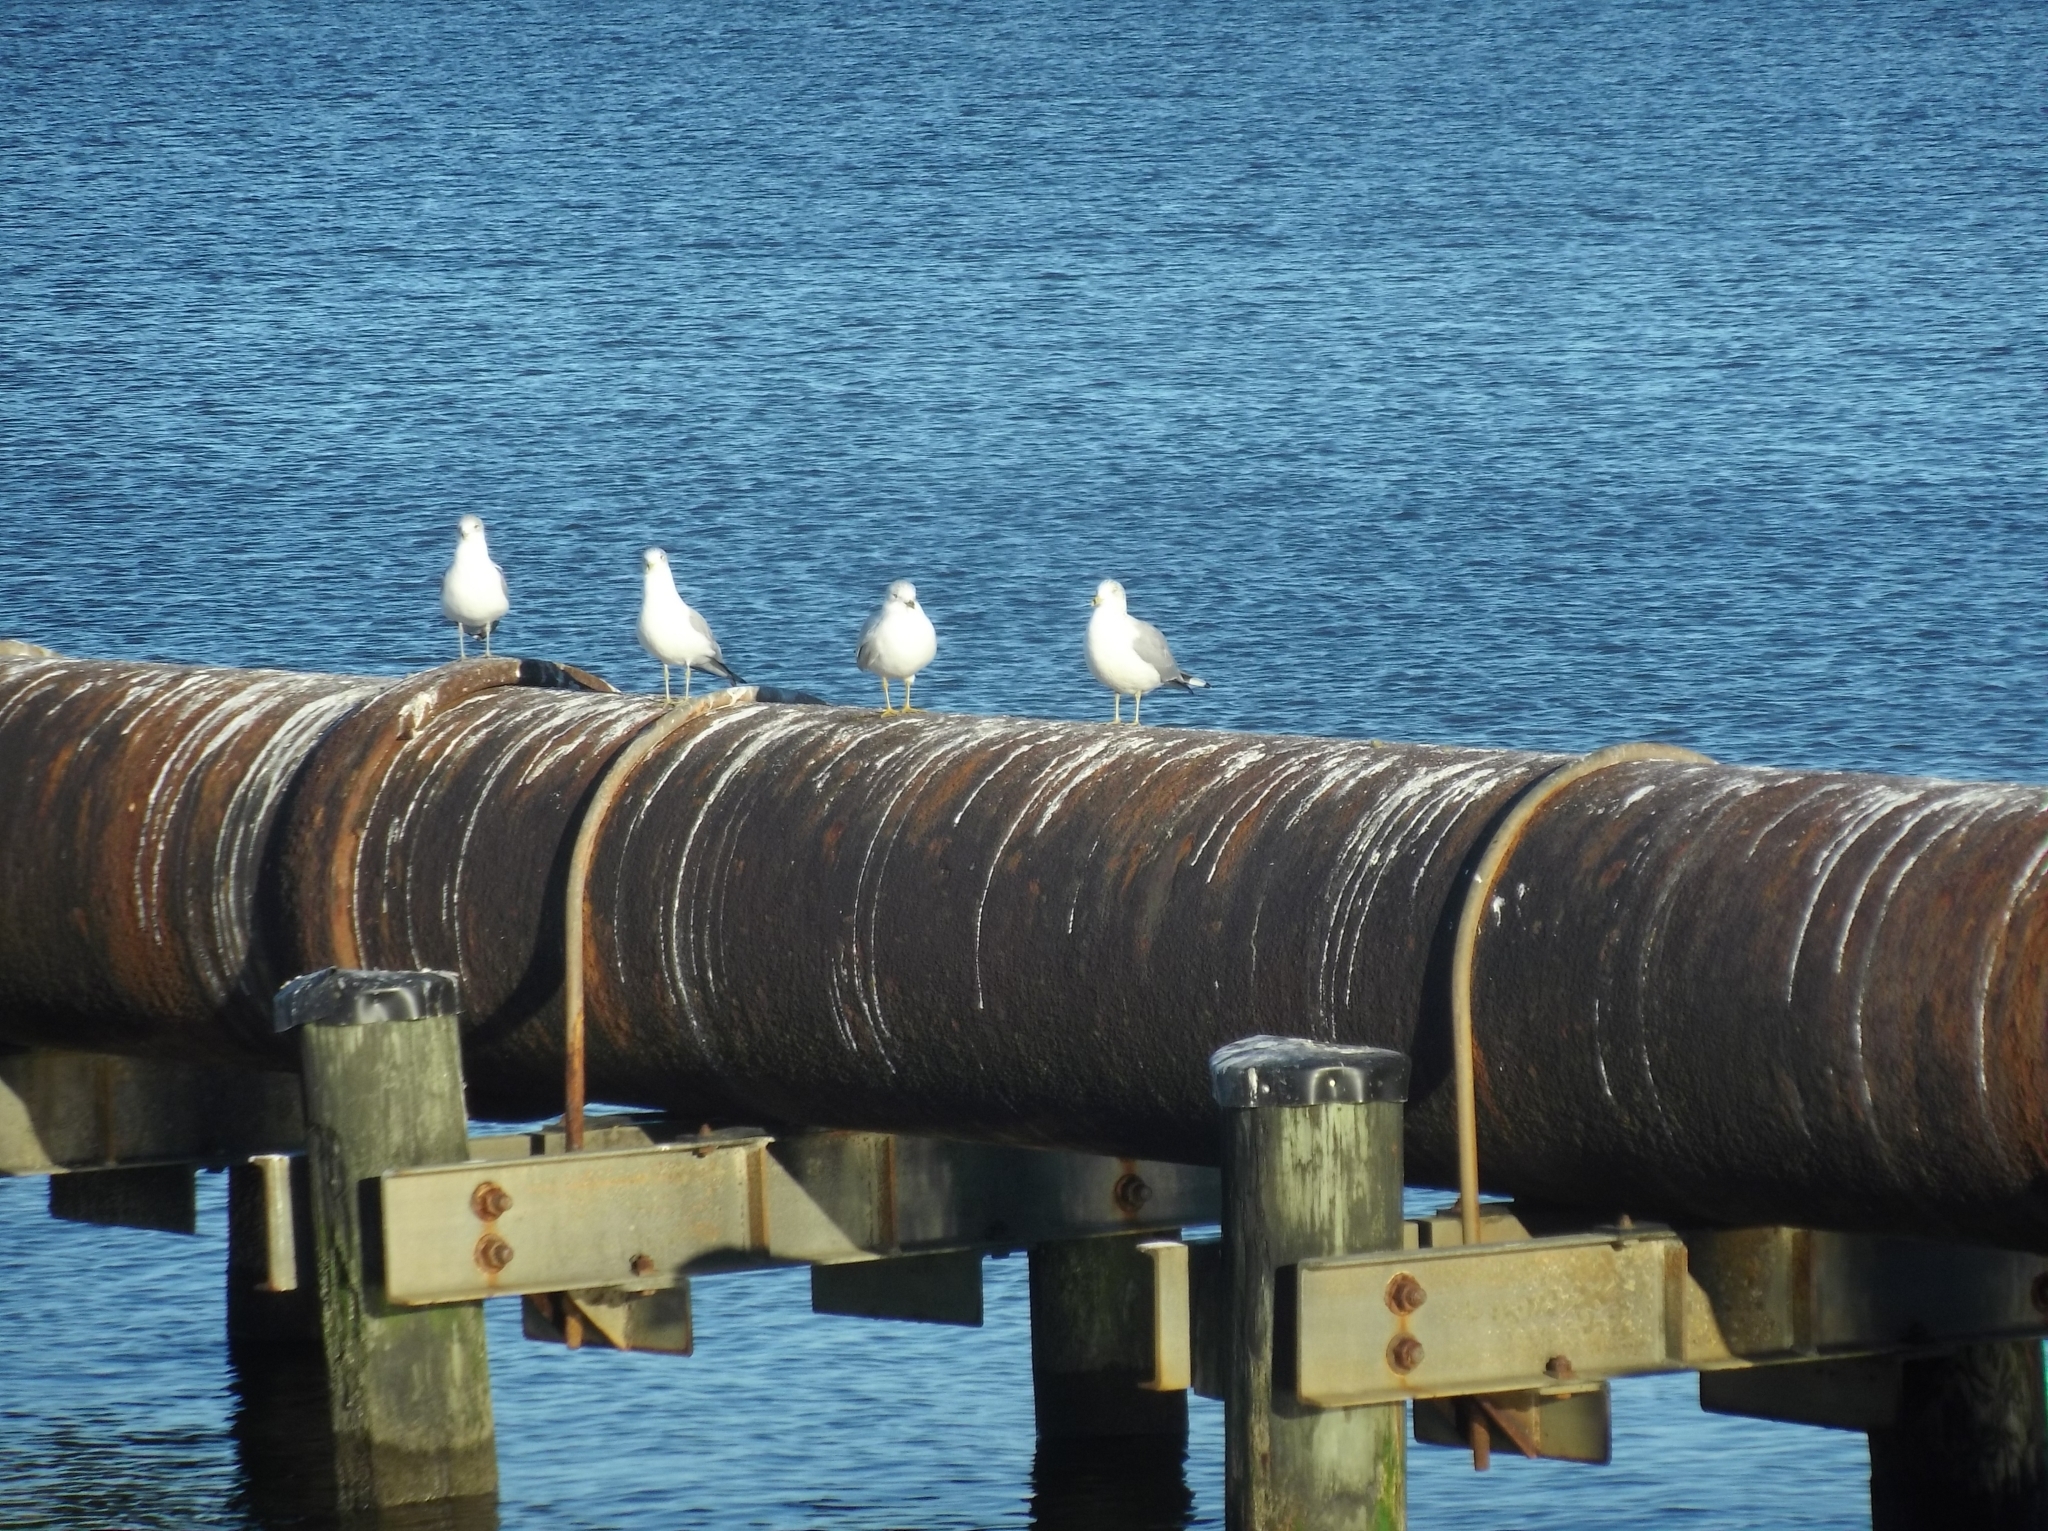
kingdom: Animalia
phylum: Chordata
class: Aves
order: Charadriiformes
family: Laridae
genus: Larus
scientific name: Larus delawarensis
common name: Ring-billed gull
